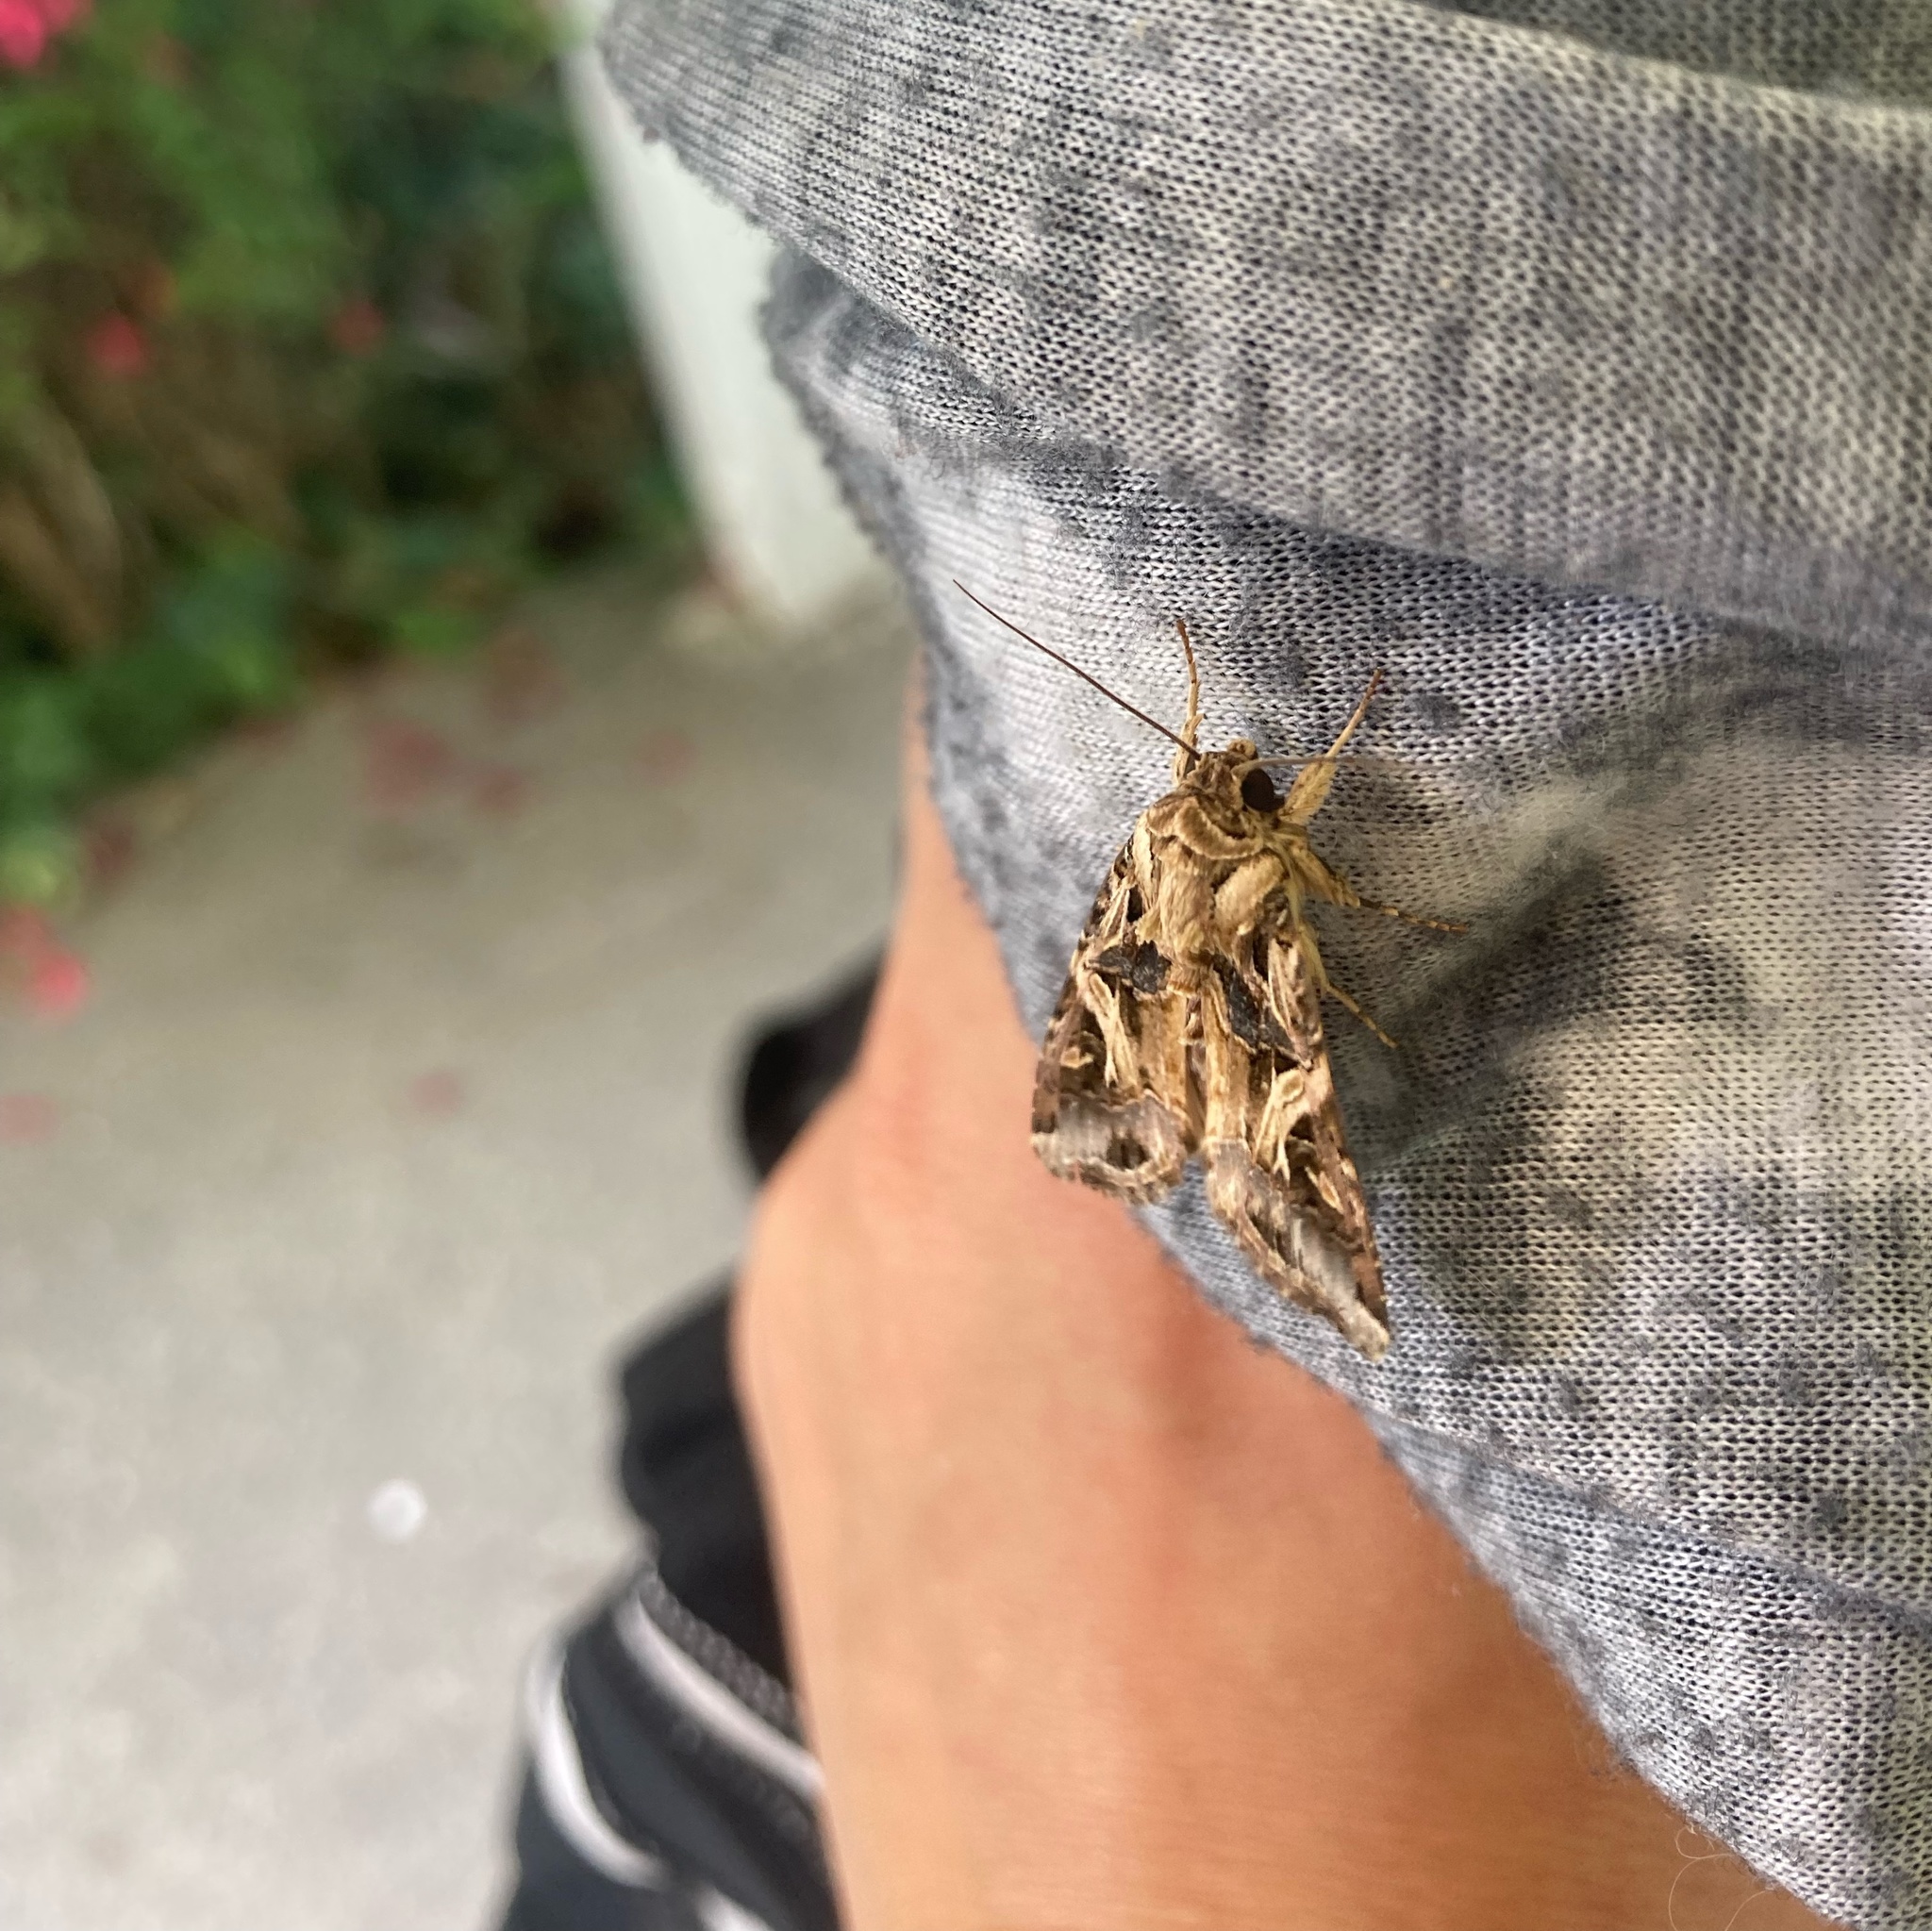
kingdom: Animalia
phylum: Arthropoda
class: Insecta
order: Lepidoptera
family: Noctuidae
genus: Spodoptera
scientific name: Spodoptera litura
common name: Asian cotton leafworm
